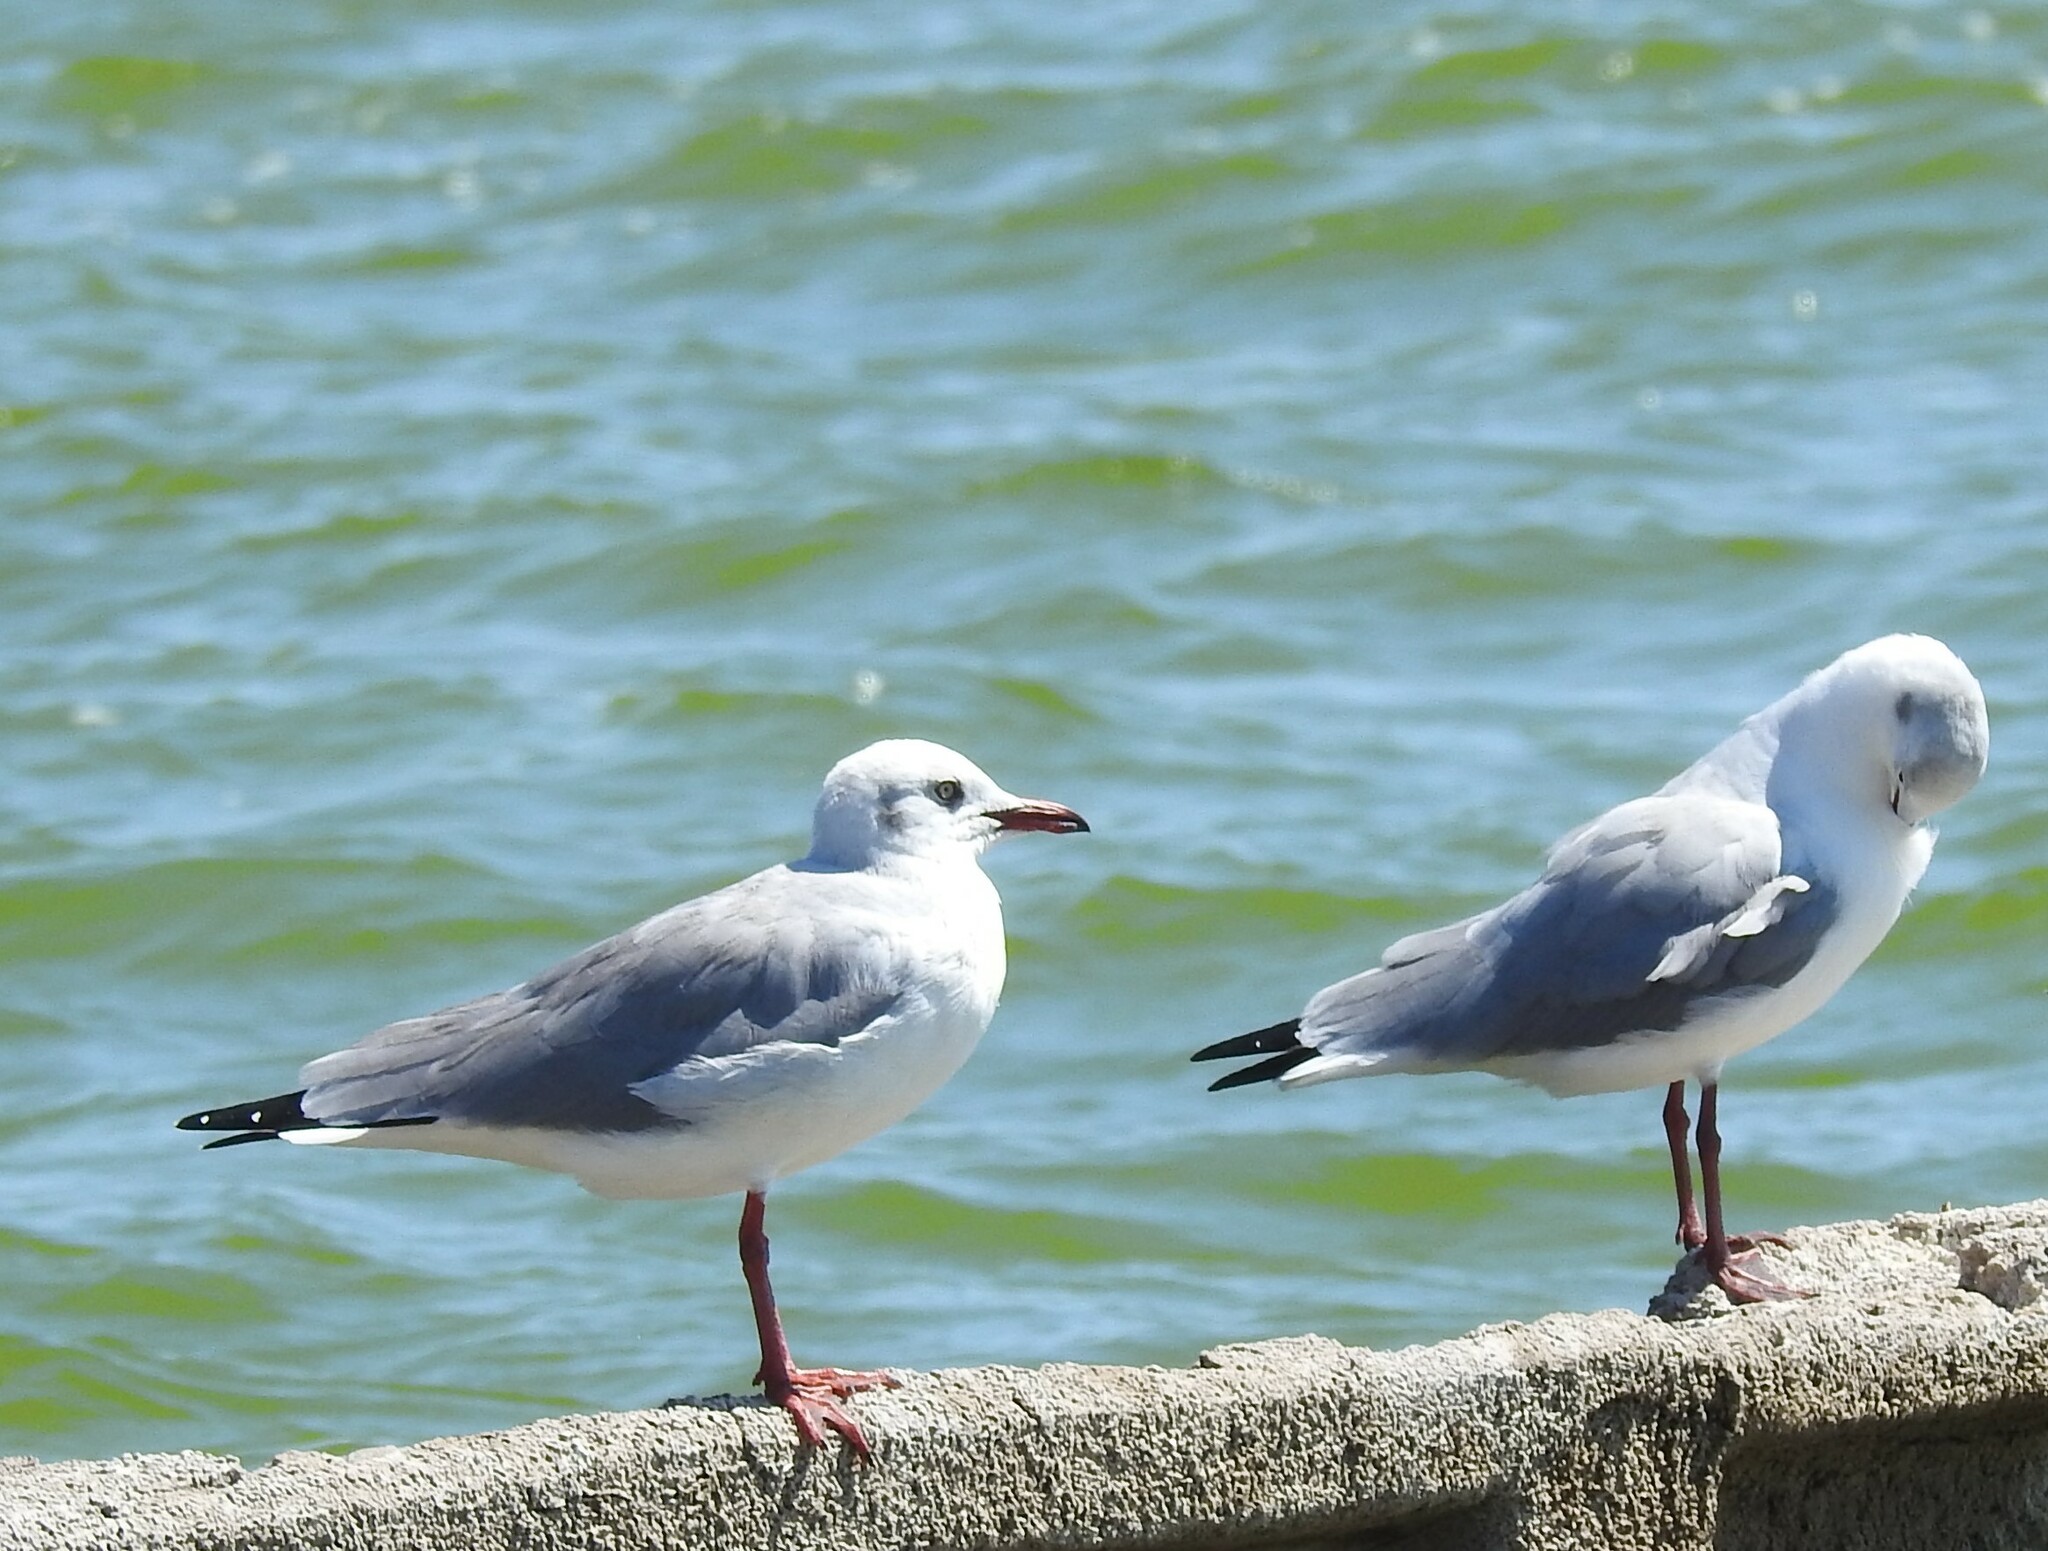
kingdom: Animalia
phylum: Chordata
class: Aves
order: Charadriiformes
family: Laridae
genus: Chroicocephalus
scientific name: Chroicocephalus cirrocephalus
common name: Grey-headed gull
